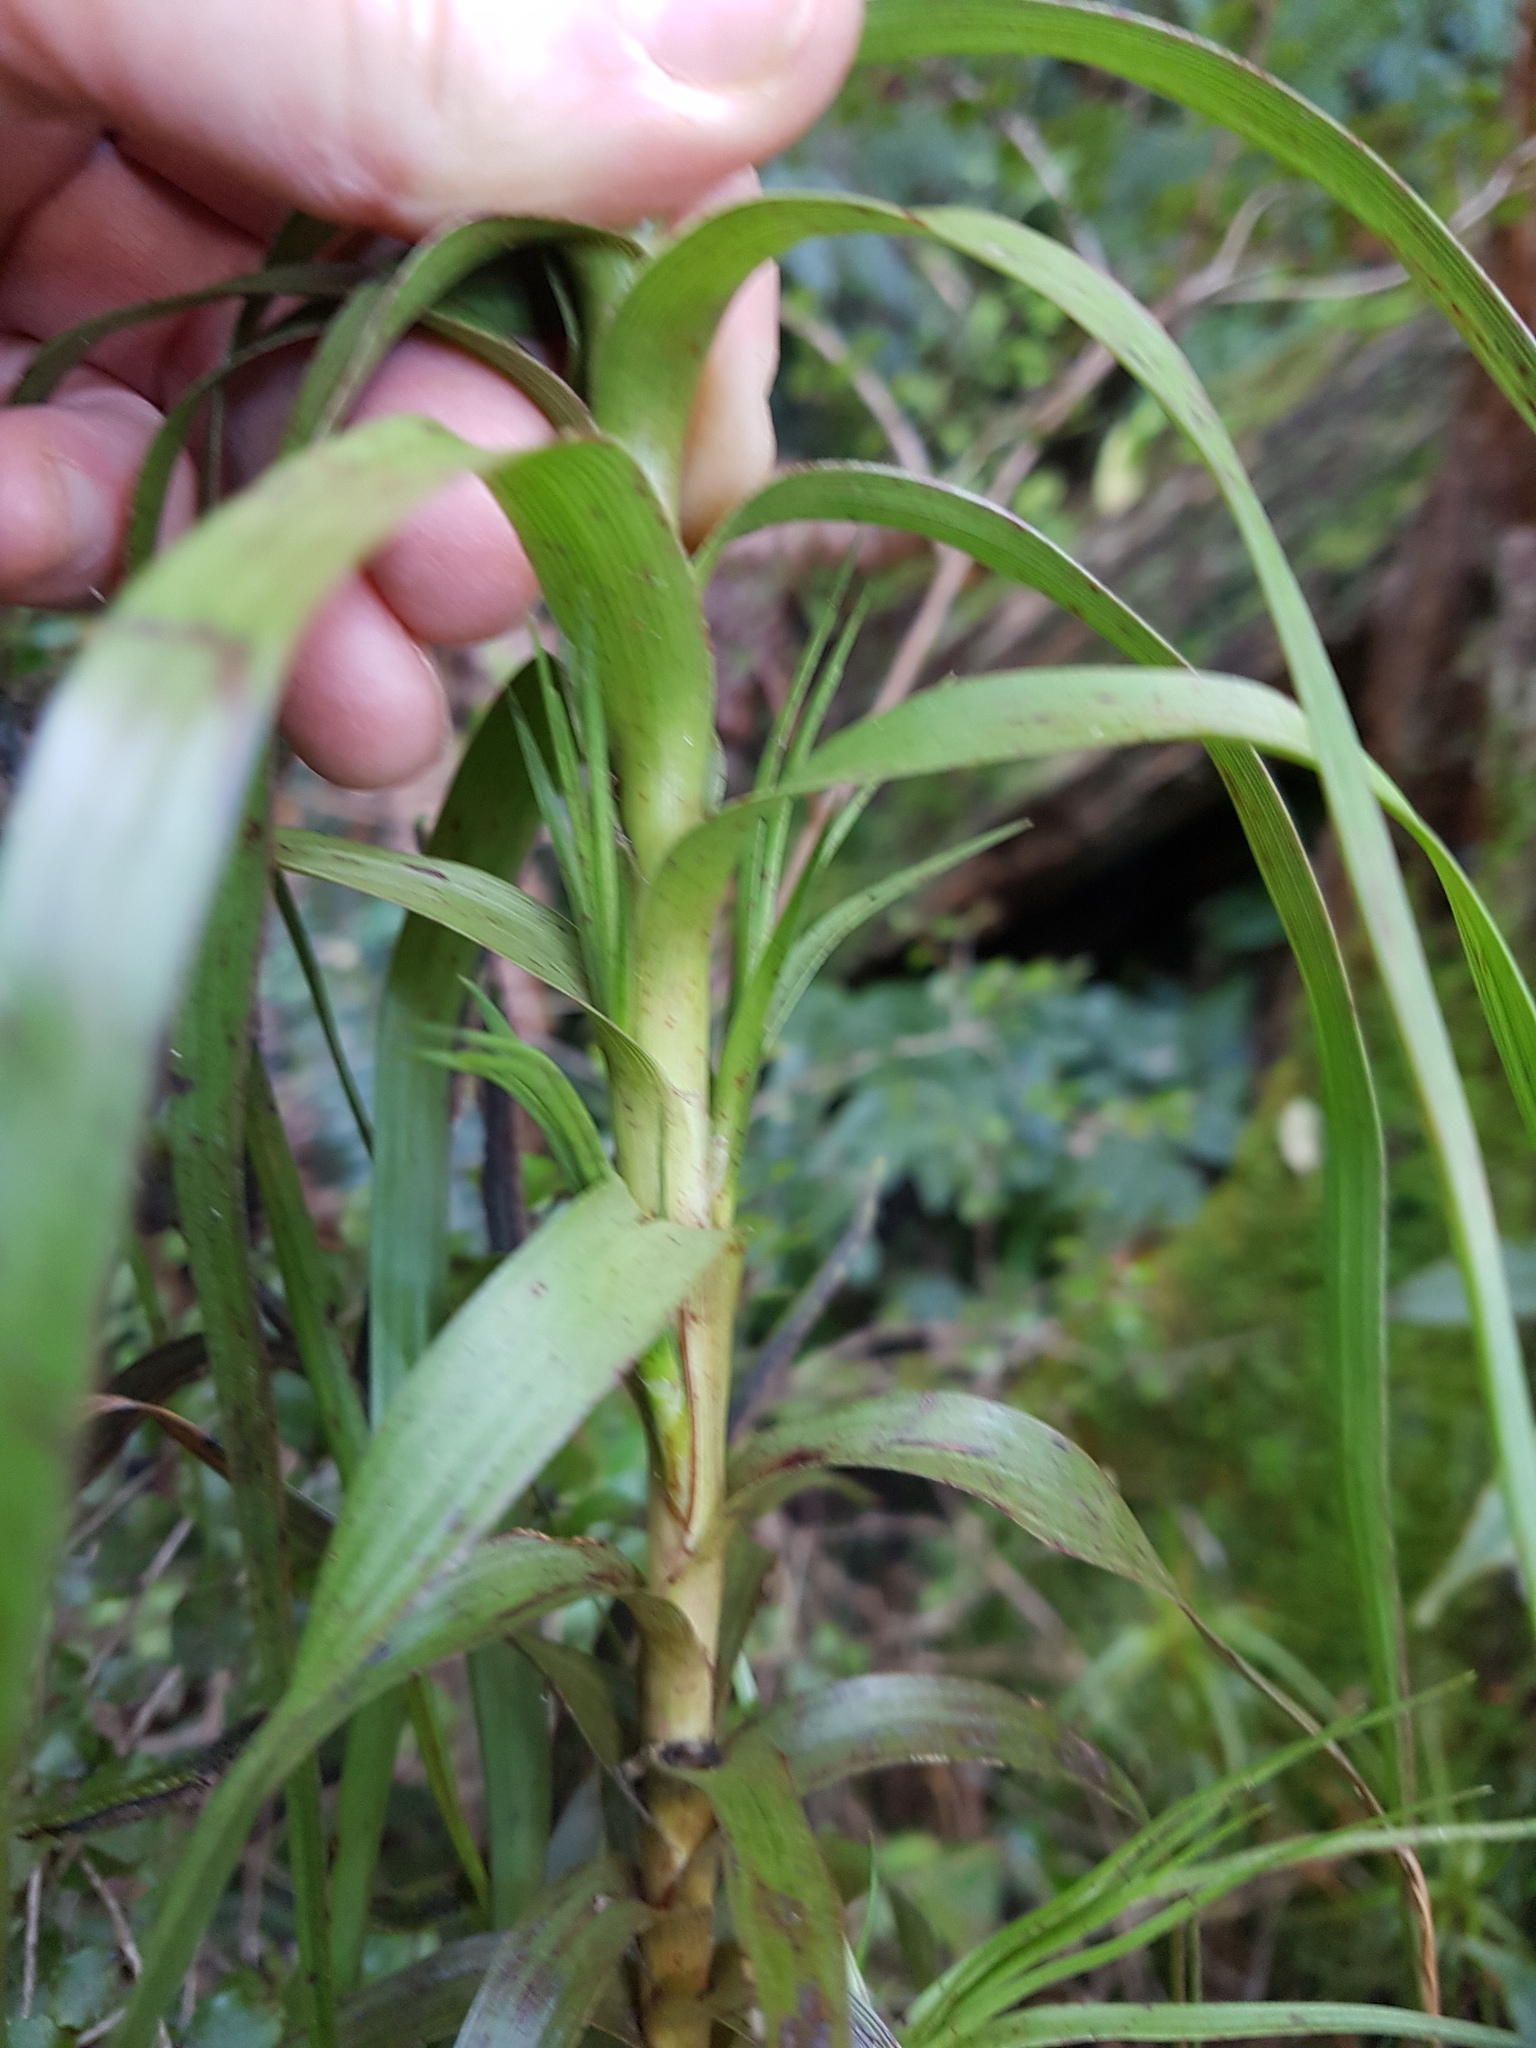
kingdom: Plantae
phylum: Tracheophyta
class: Magnoliopsida
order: Ericales
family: Ericaceae
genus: Dracophyllum
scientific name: Dracophyllum longifolium
